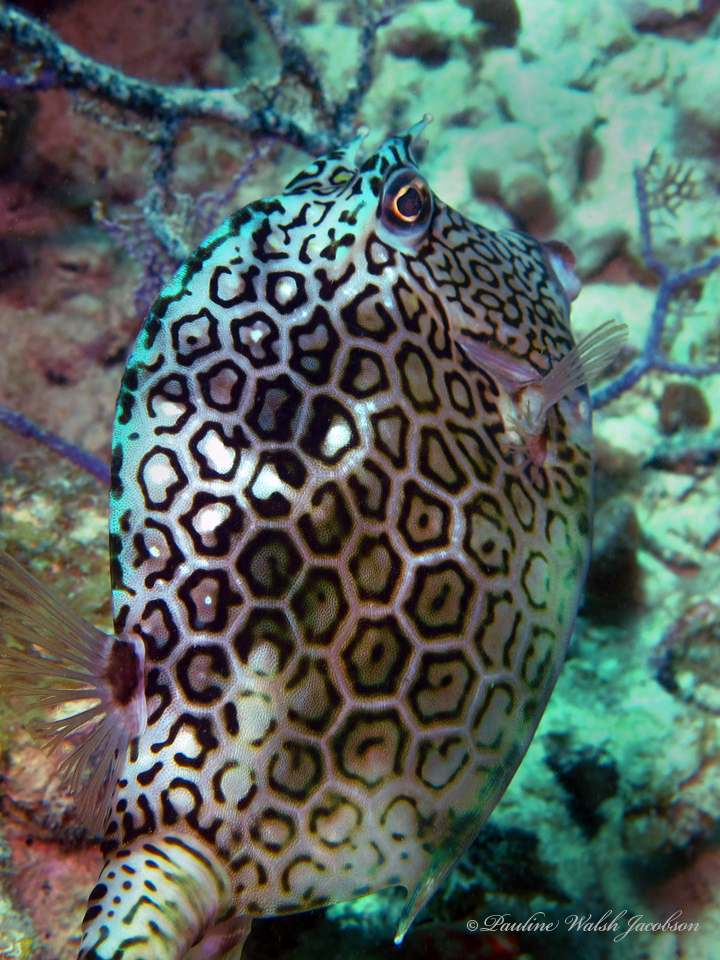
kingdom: Animalia
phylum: Chordata
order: Tetraodontiformes
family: Ostraciidae
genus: Acanthostracion
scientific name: Acanthostracion polygonius
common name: Honeycomb cowfish
